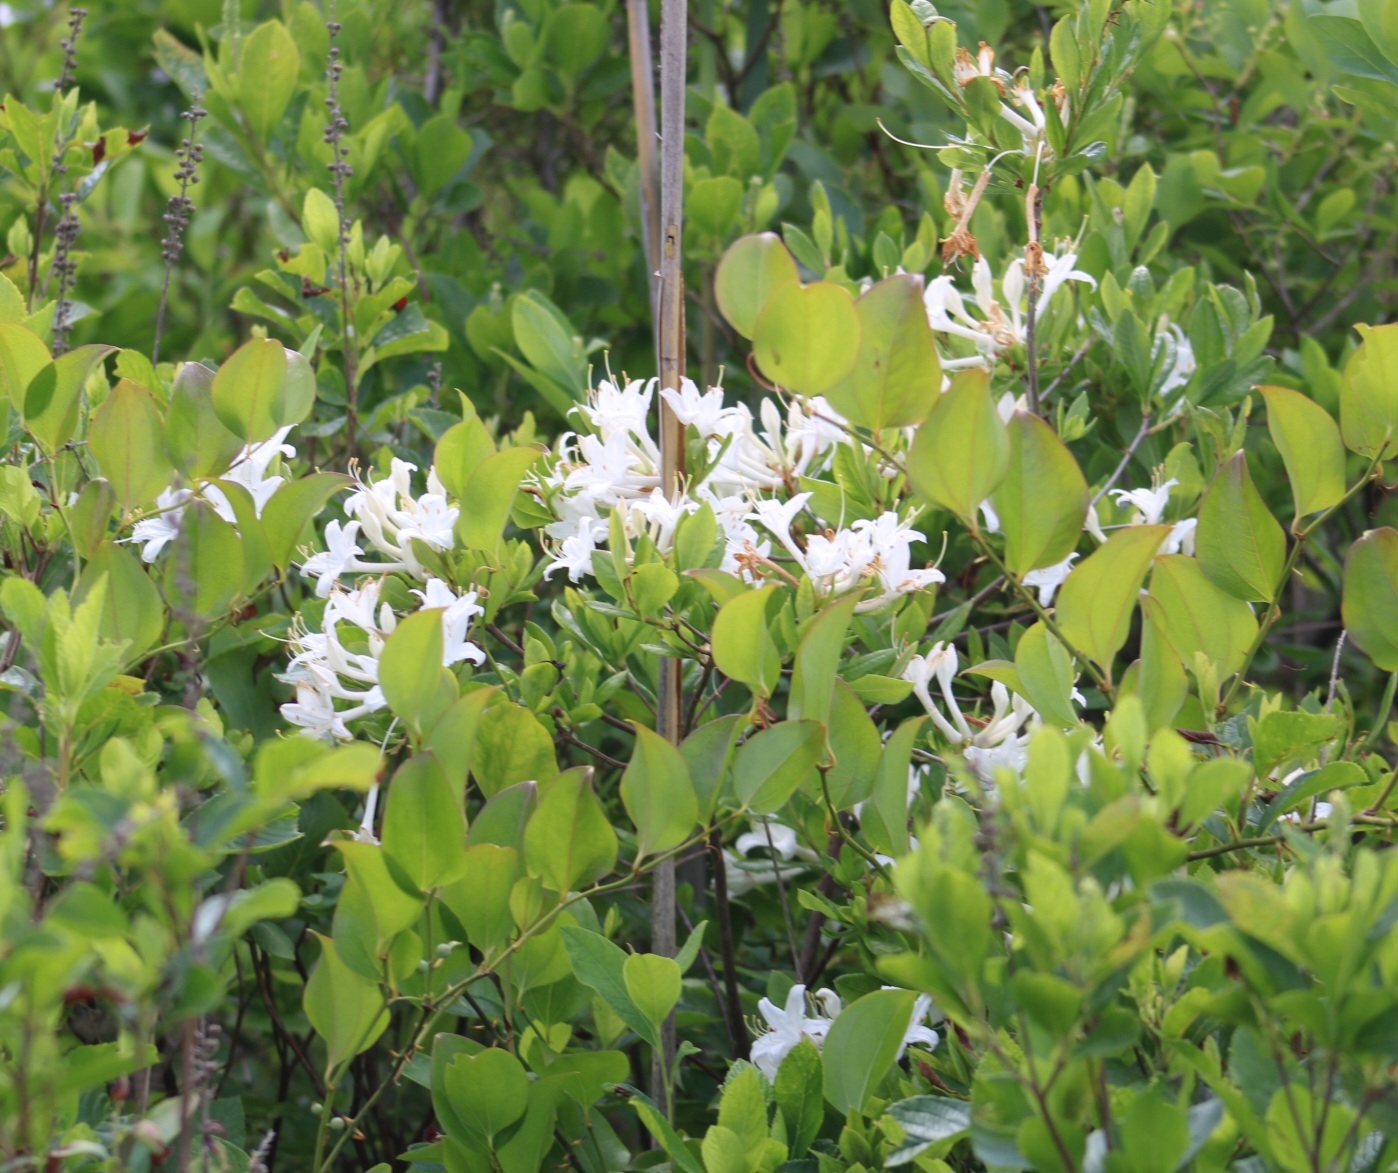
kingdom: Plantae
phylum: Tracheophyta
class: Magnoliopsida
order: Ericales
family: Ericaceae
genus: Rhododendron
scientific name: Rhododendron viscosum
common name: Clammy azalea
